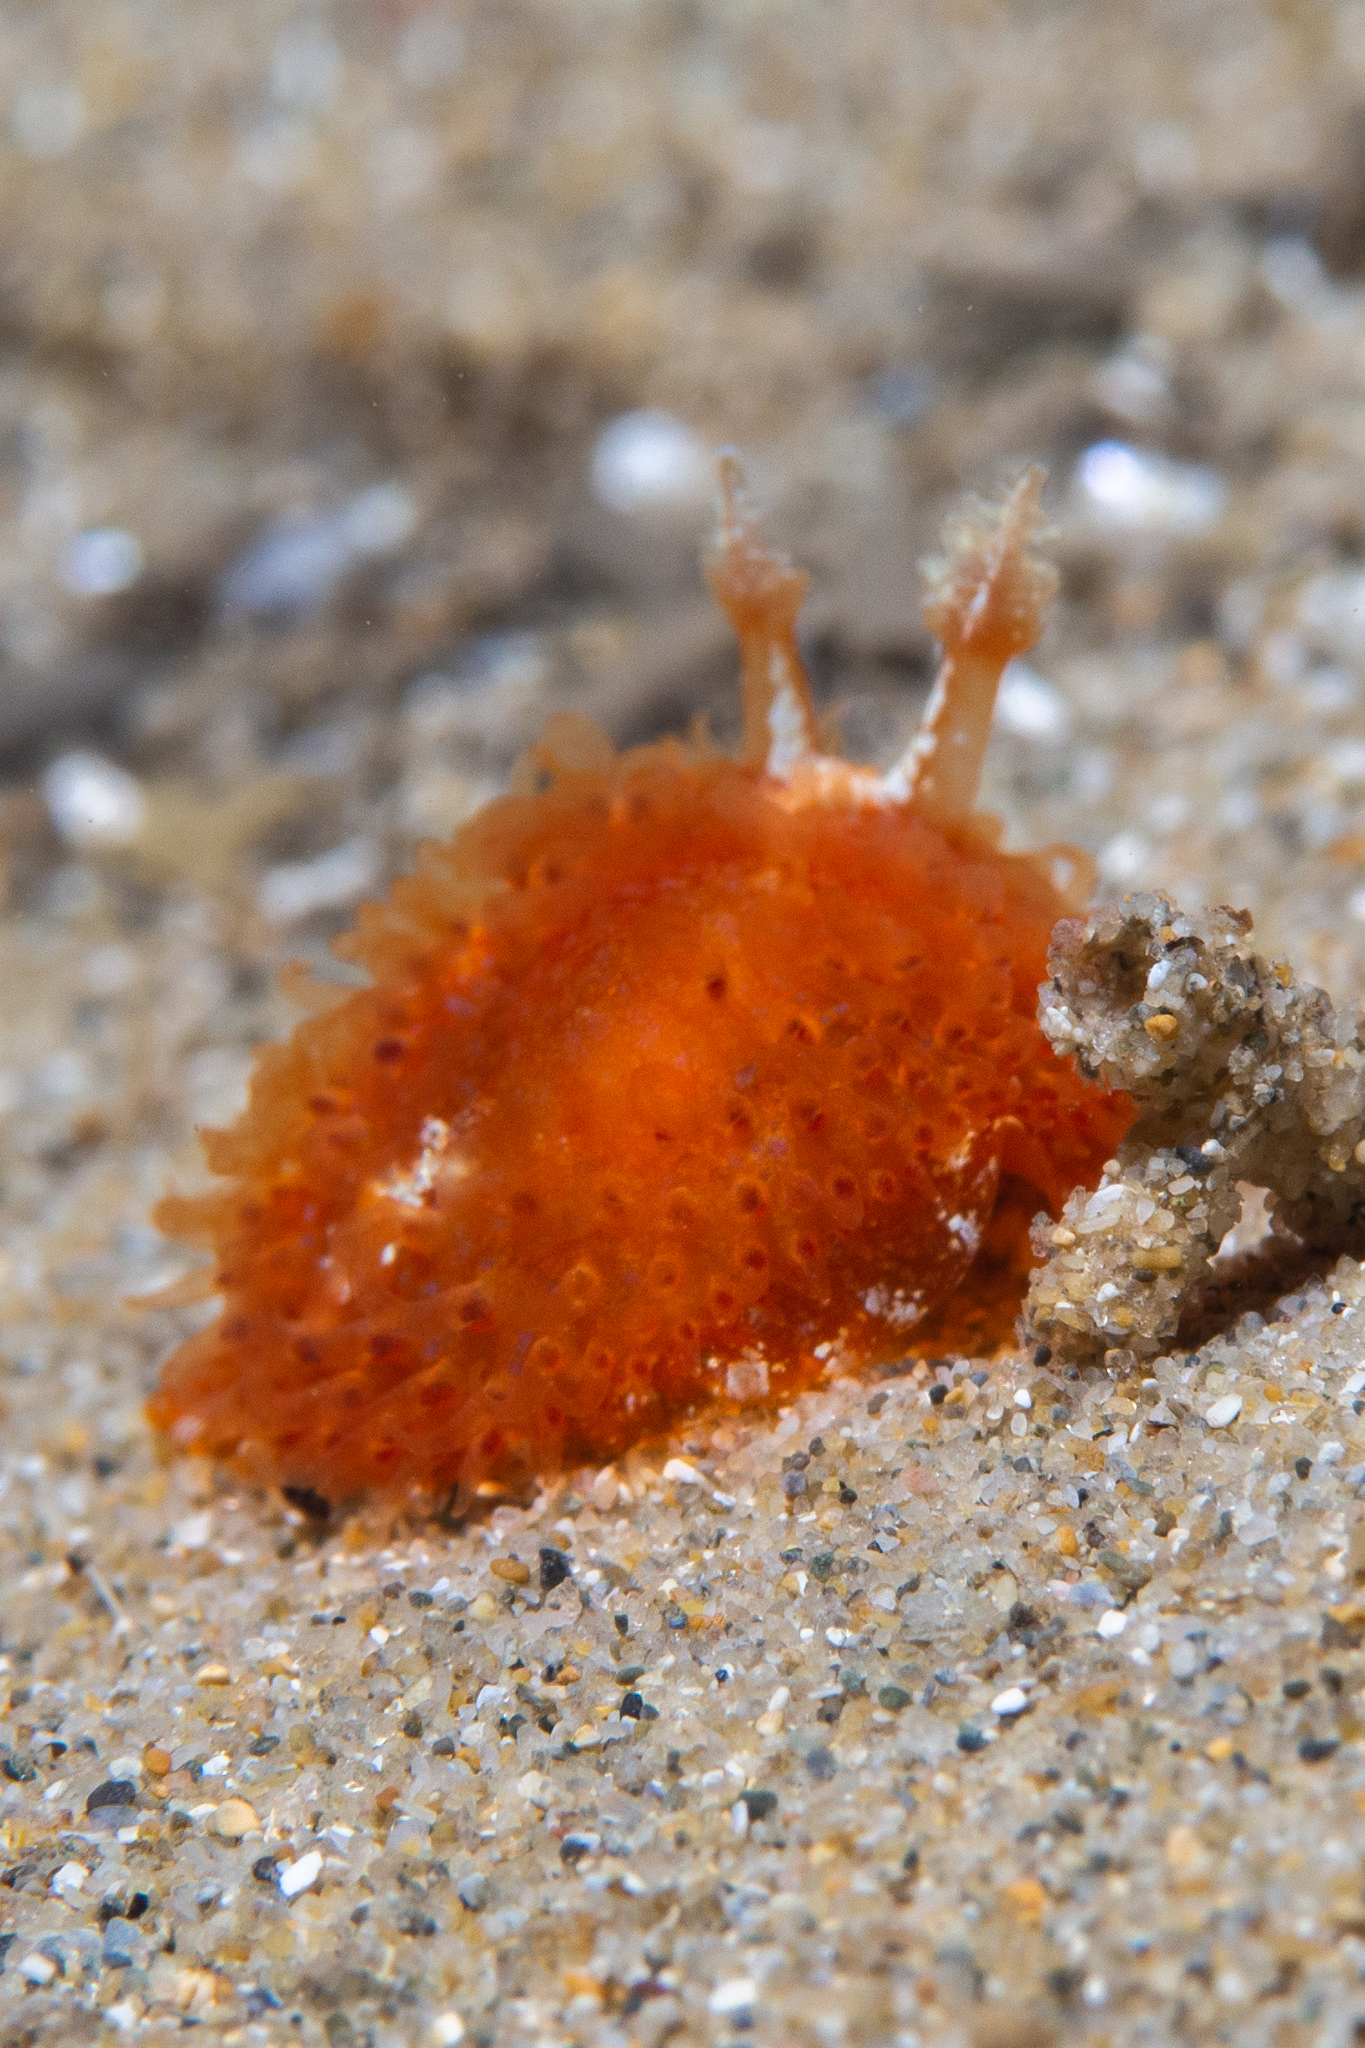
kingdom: Animalia
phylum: Mollusca
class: Gastropoda
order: Nudibranchia
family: Madrellidae
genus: Madrella
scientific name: Madrella ferruginosa
